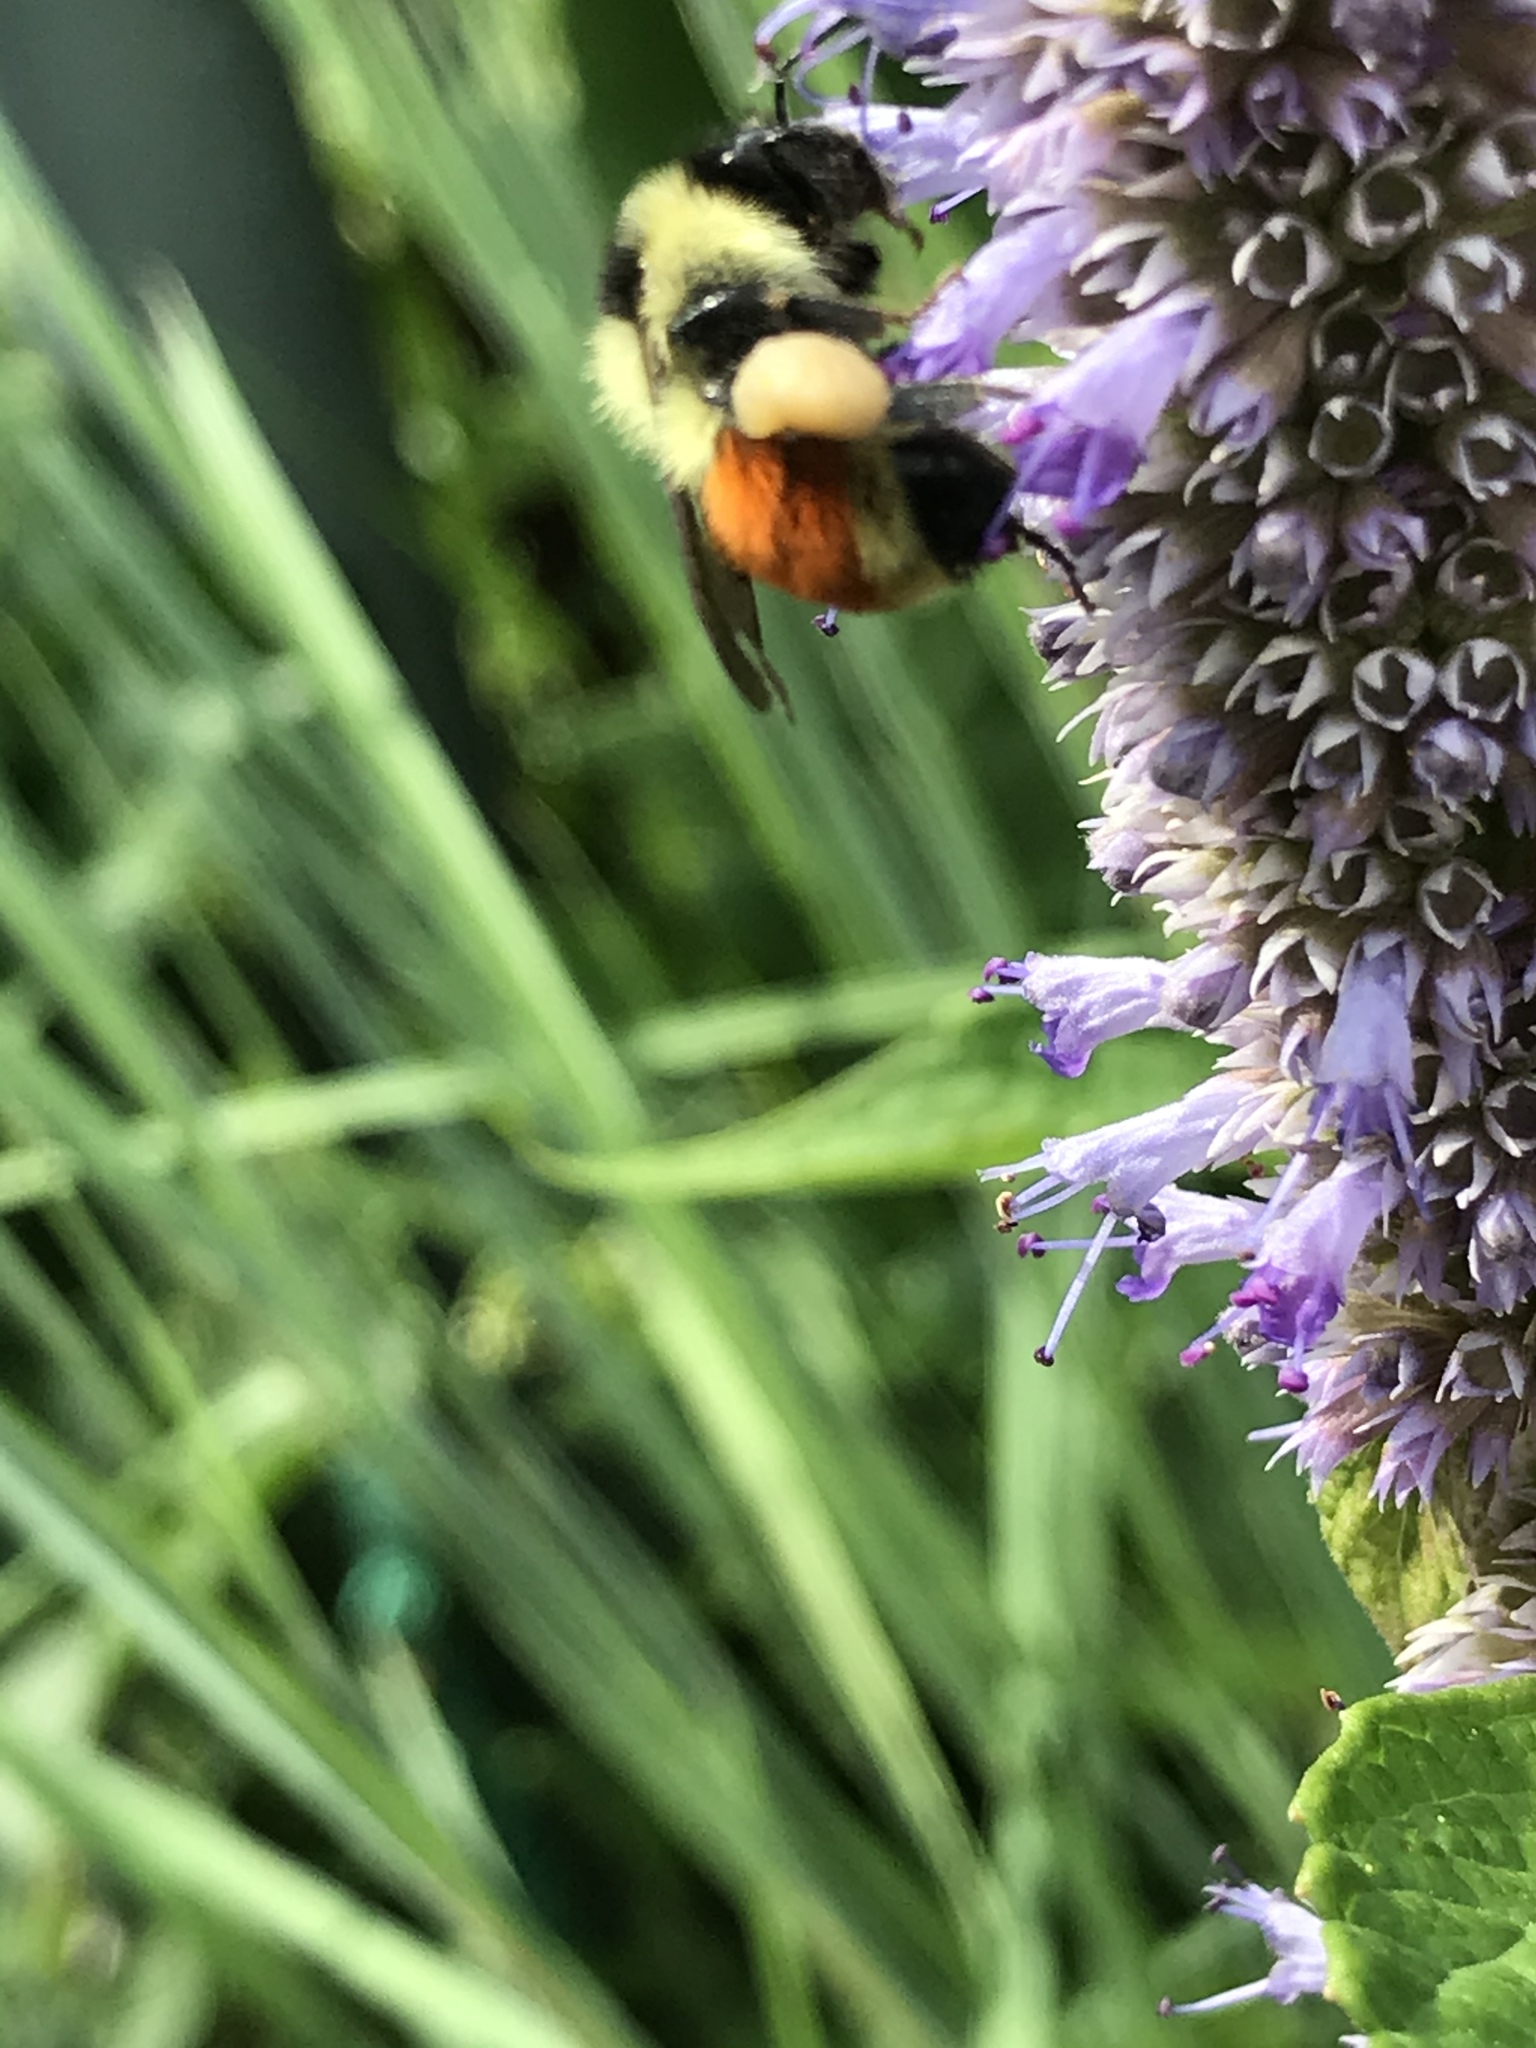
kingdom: Animalia
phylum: Arthropoda
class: Insecta
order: Hymenoptera
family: Apidae
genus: Bombus
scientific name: Bombus ternarius
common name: Tri-colored bumble bee
